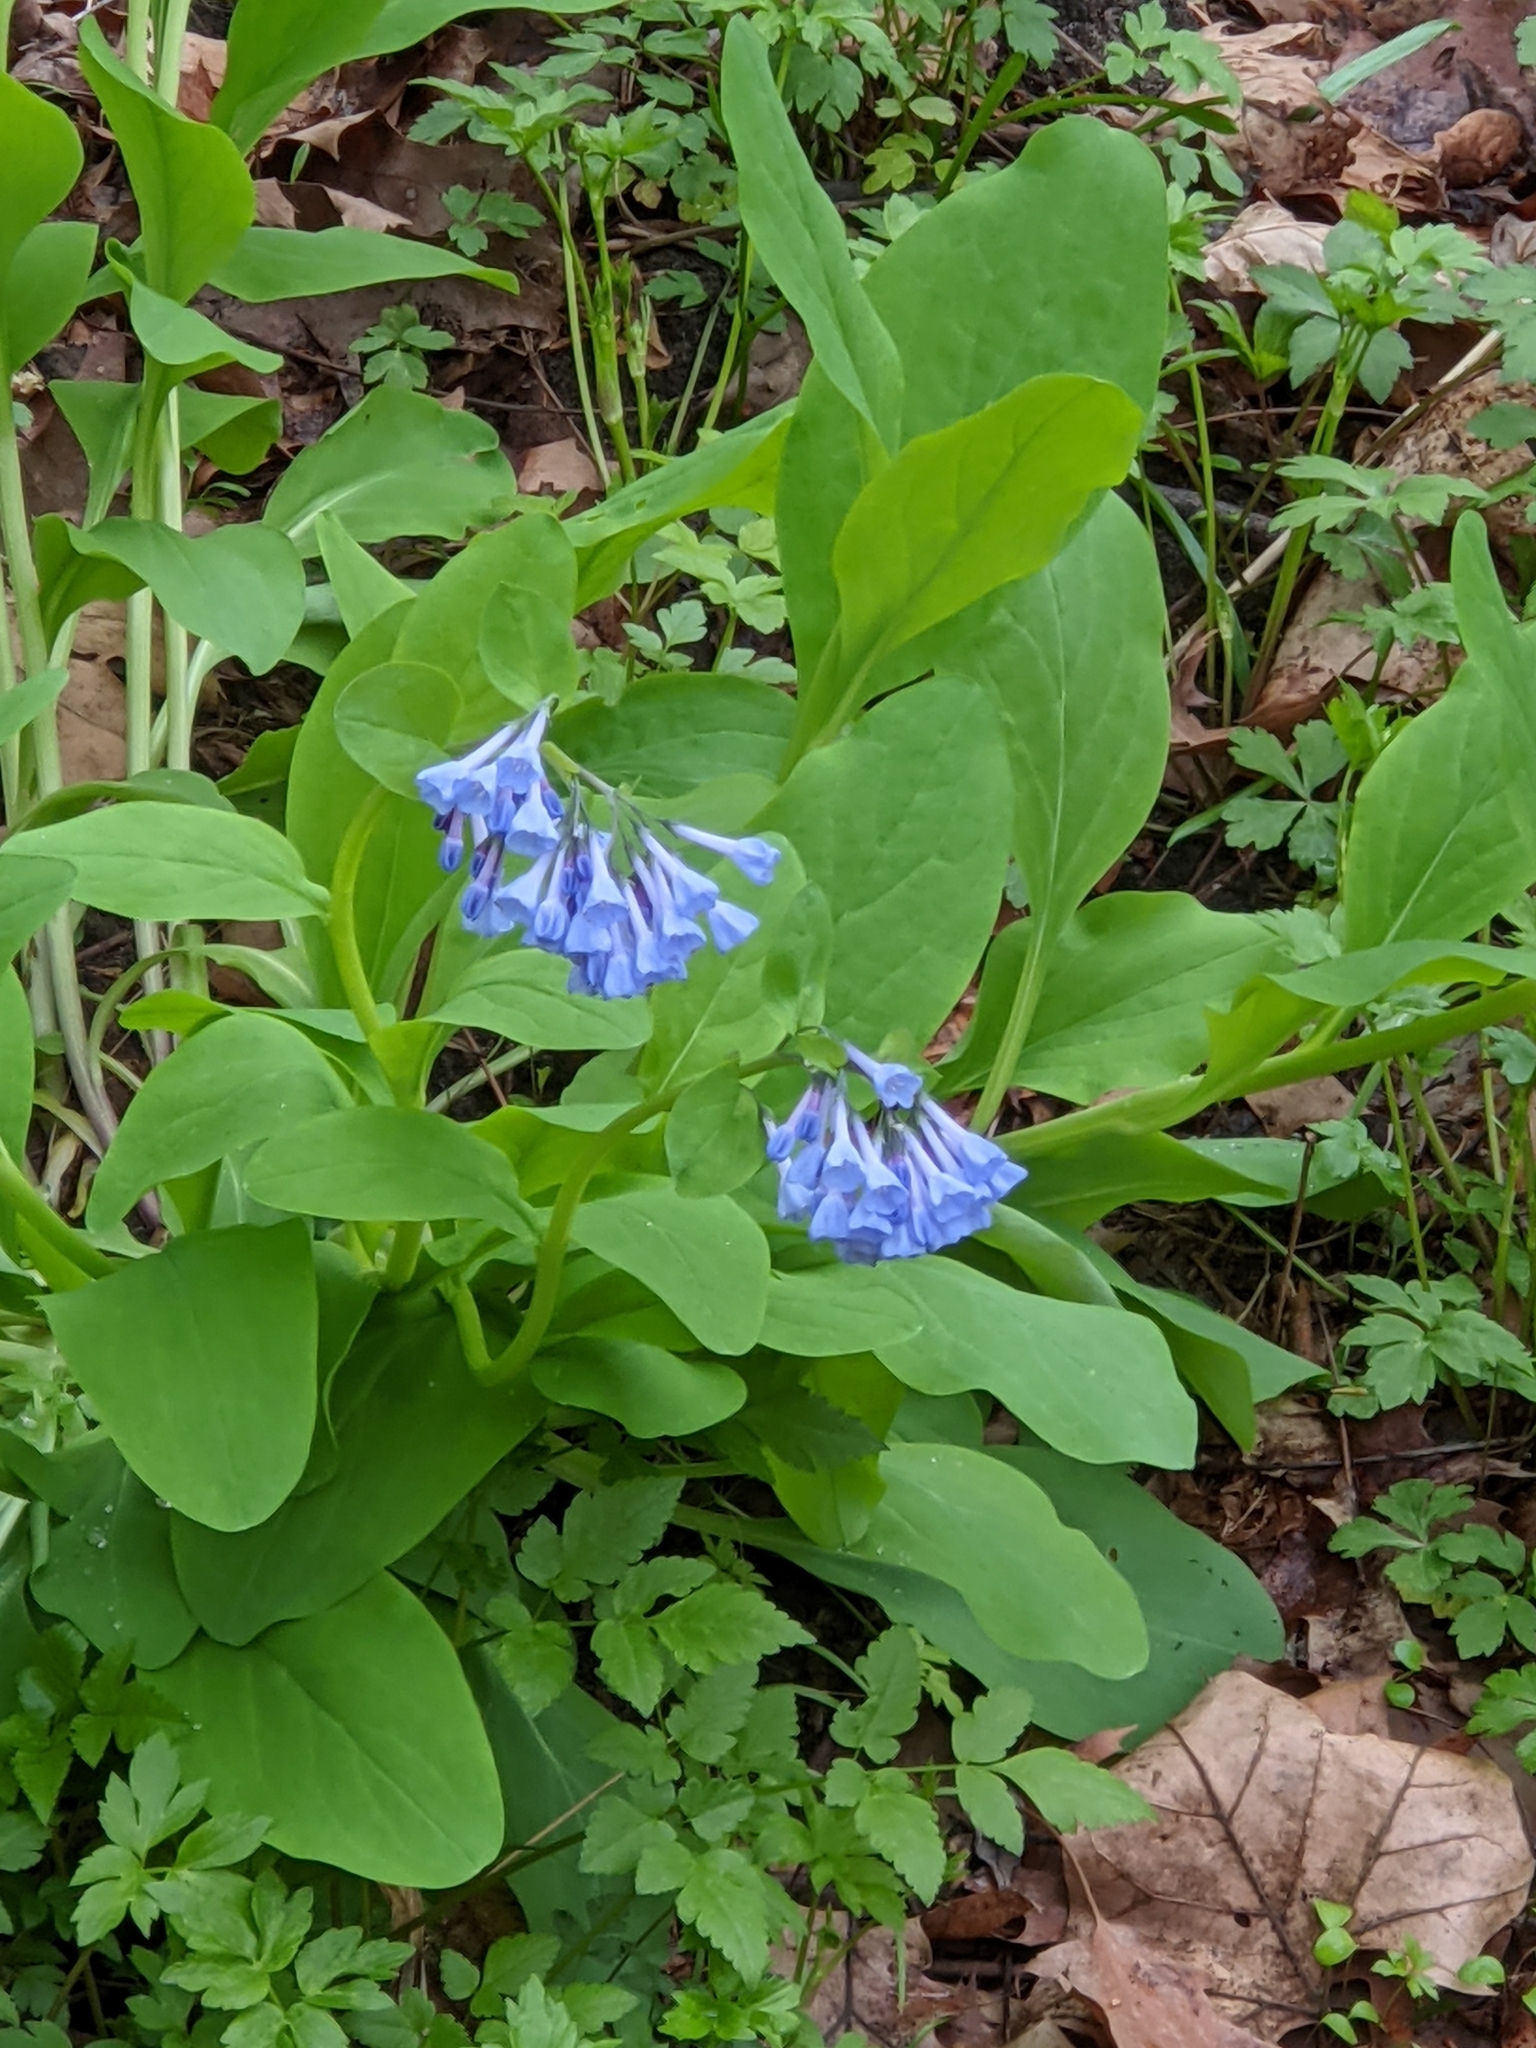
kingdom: Plantae
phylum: Tracheophyta
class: Magnoliopsida
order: Boraginales
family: Boraginaceae
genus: Mertensia
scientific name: Mertensia virginica
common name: Virginia bluebells
